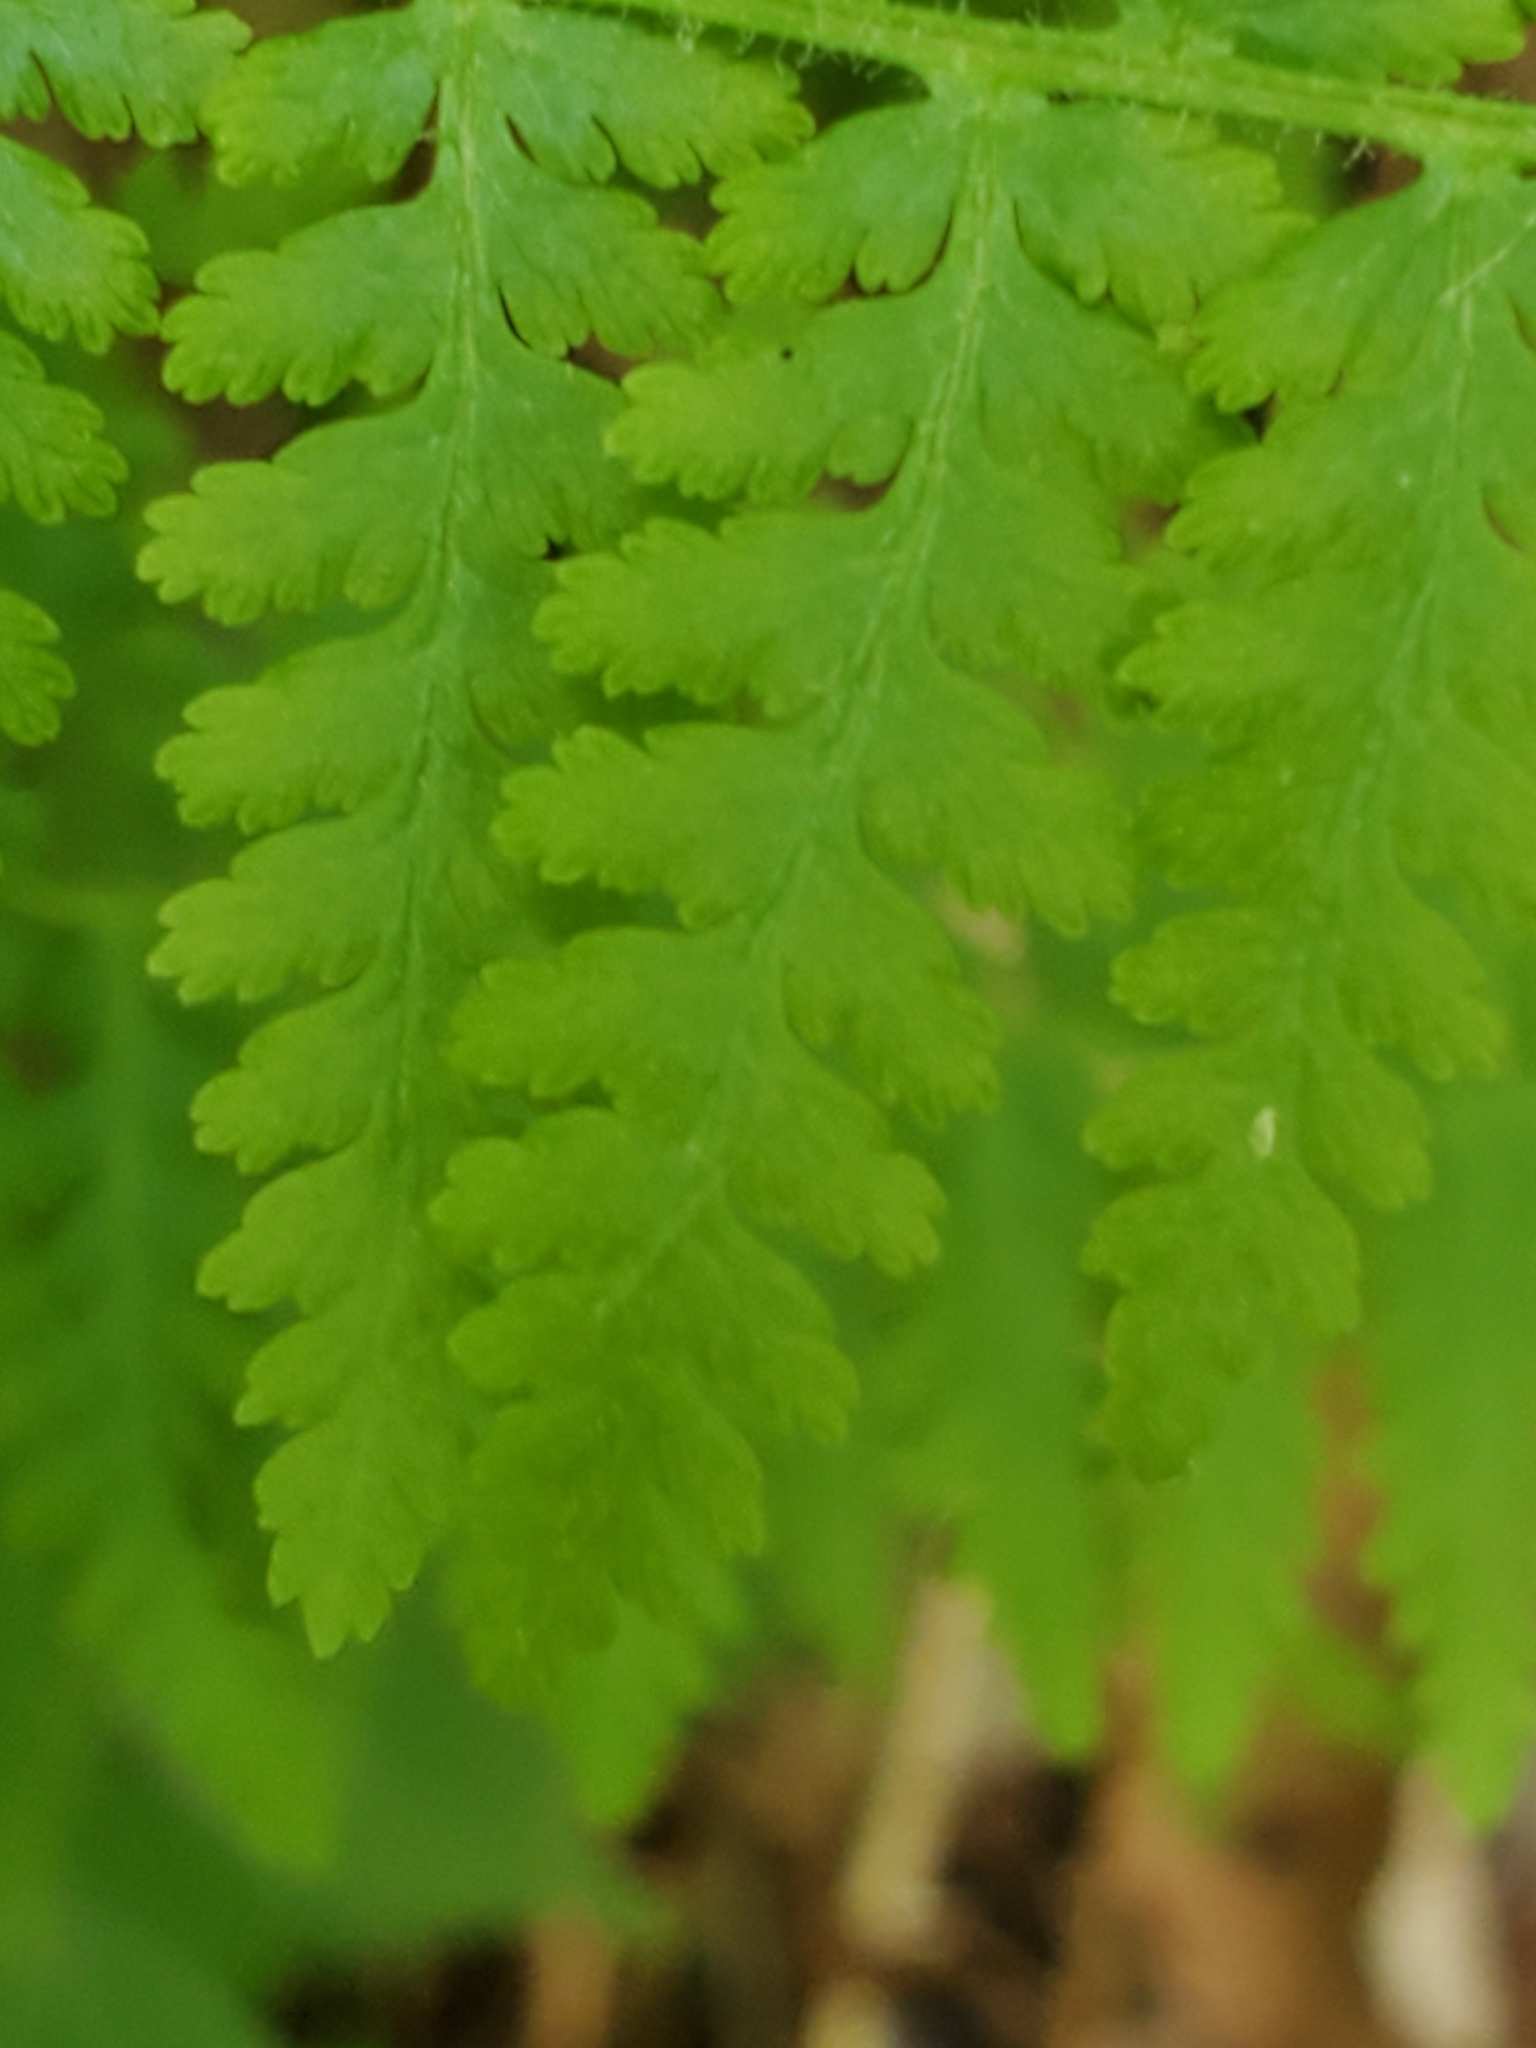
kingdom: Plantae
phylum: Tracheophyta
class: Polypodiopsida
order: Polypodiales
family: Dennstaedtiaceae
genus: Sitobolium
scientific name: Sitobolium punctilobum
